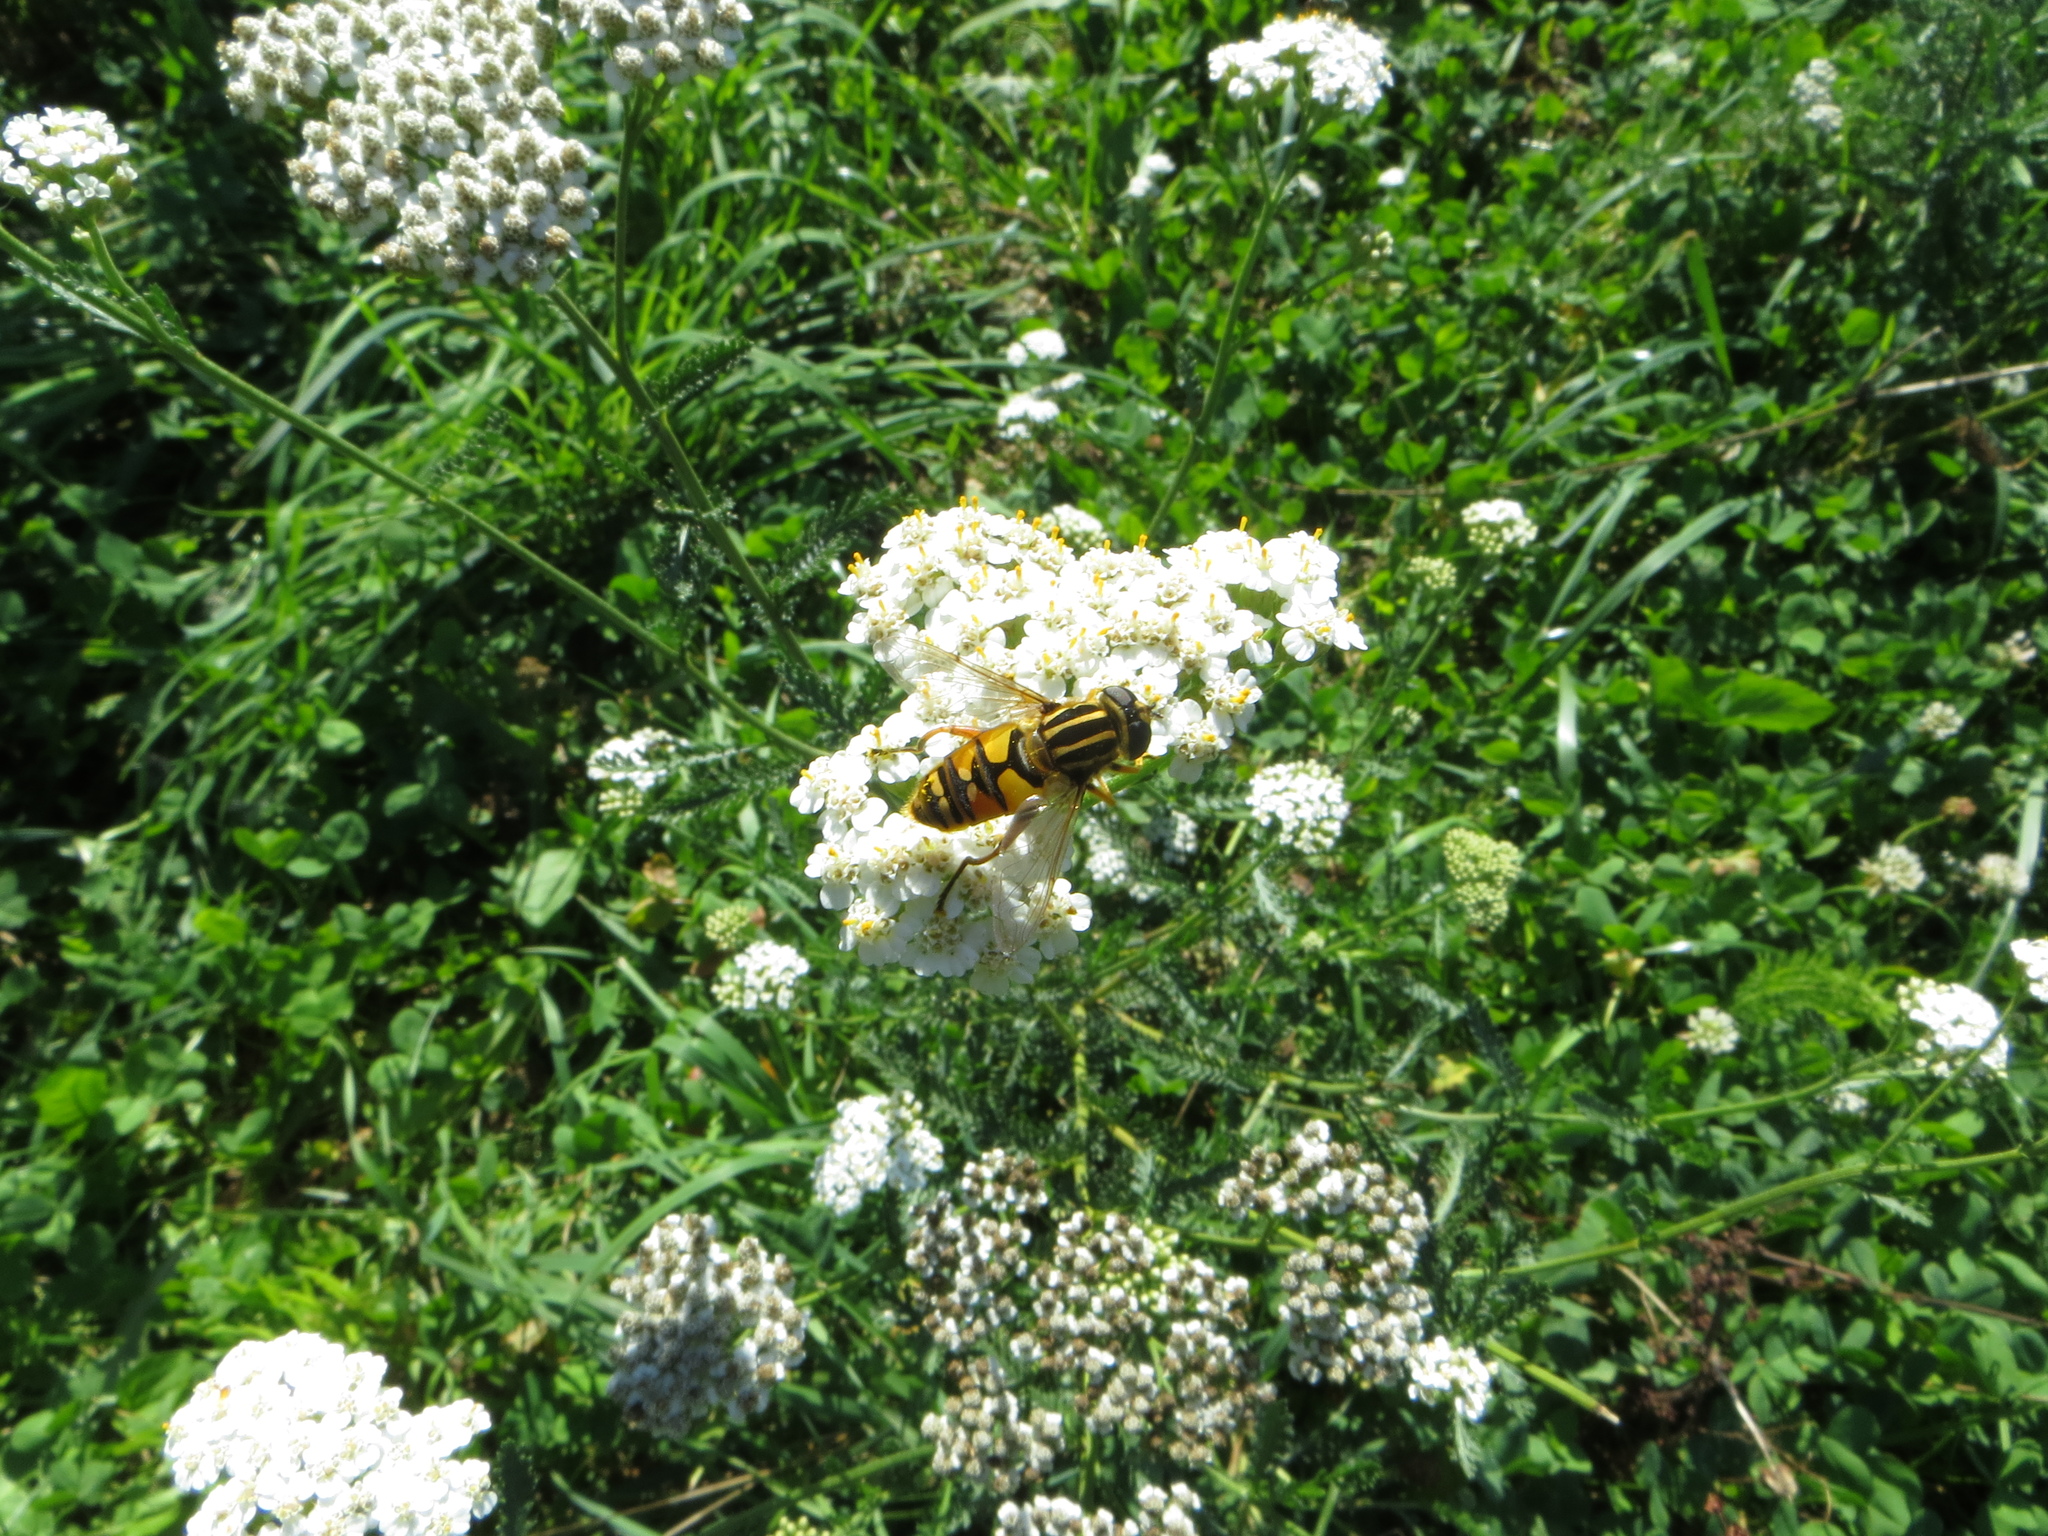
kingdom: Animalia
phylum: Arthropoda
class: Insecta
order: Diptera
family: Syrphidae
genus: Helophilus
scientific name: Helophilus pendulus
